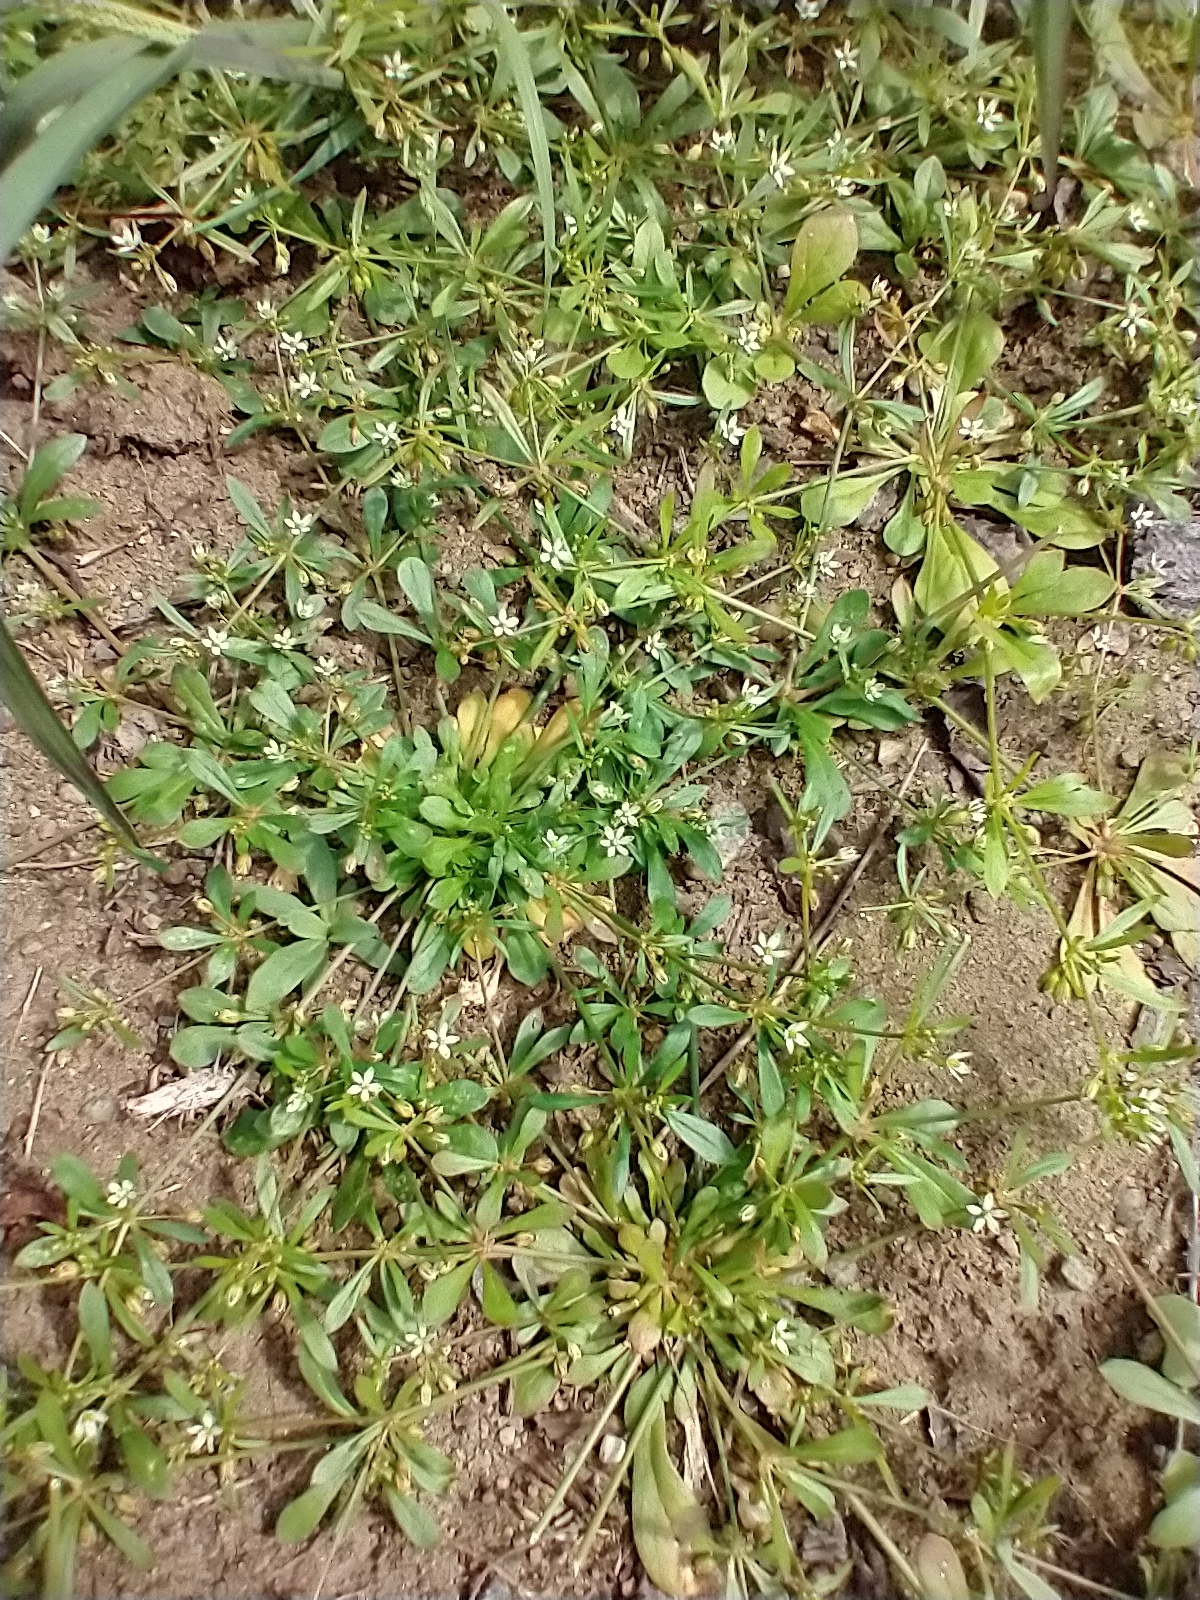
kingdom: Plantae
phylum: Tracheophyta
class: Magnoliopsida
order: Caryophyllales
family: Molluginaceae
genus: Mollugo
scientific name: Mollugo verticillata
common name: Green carpetweed
